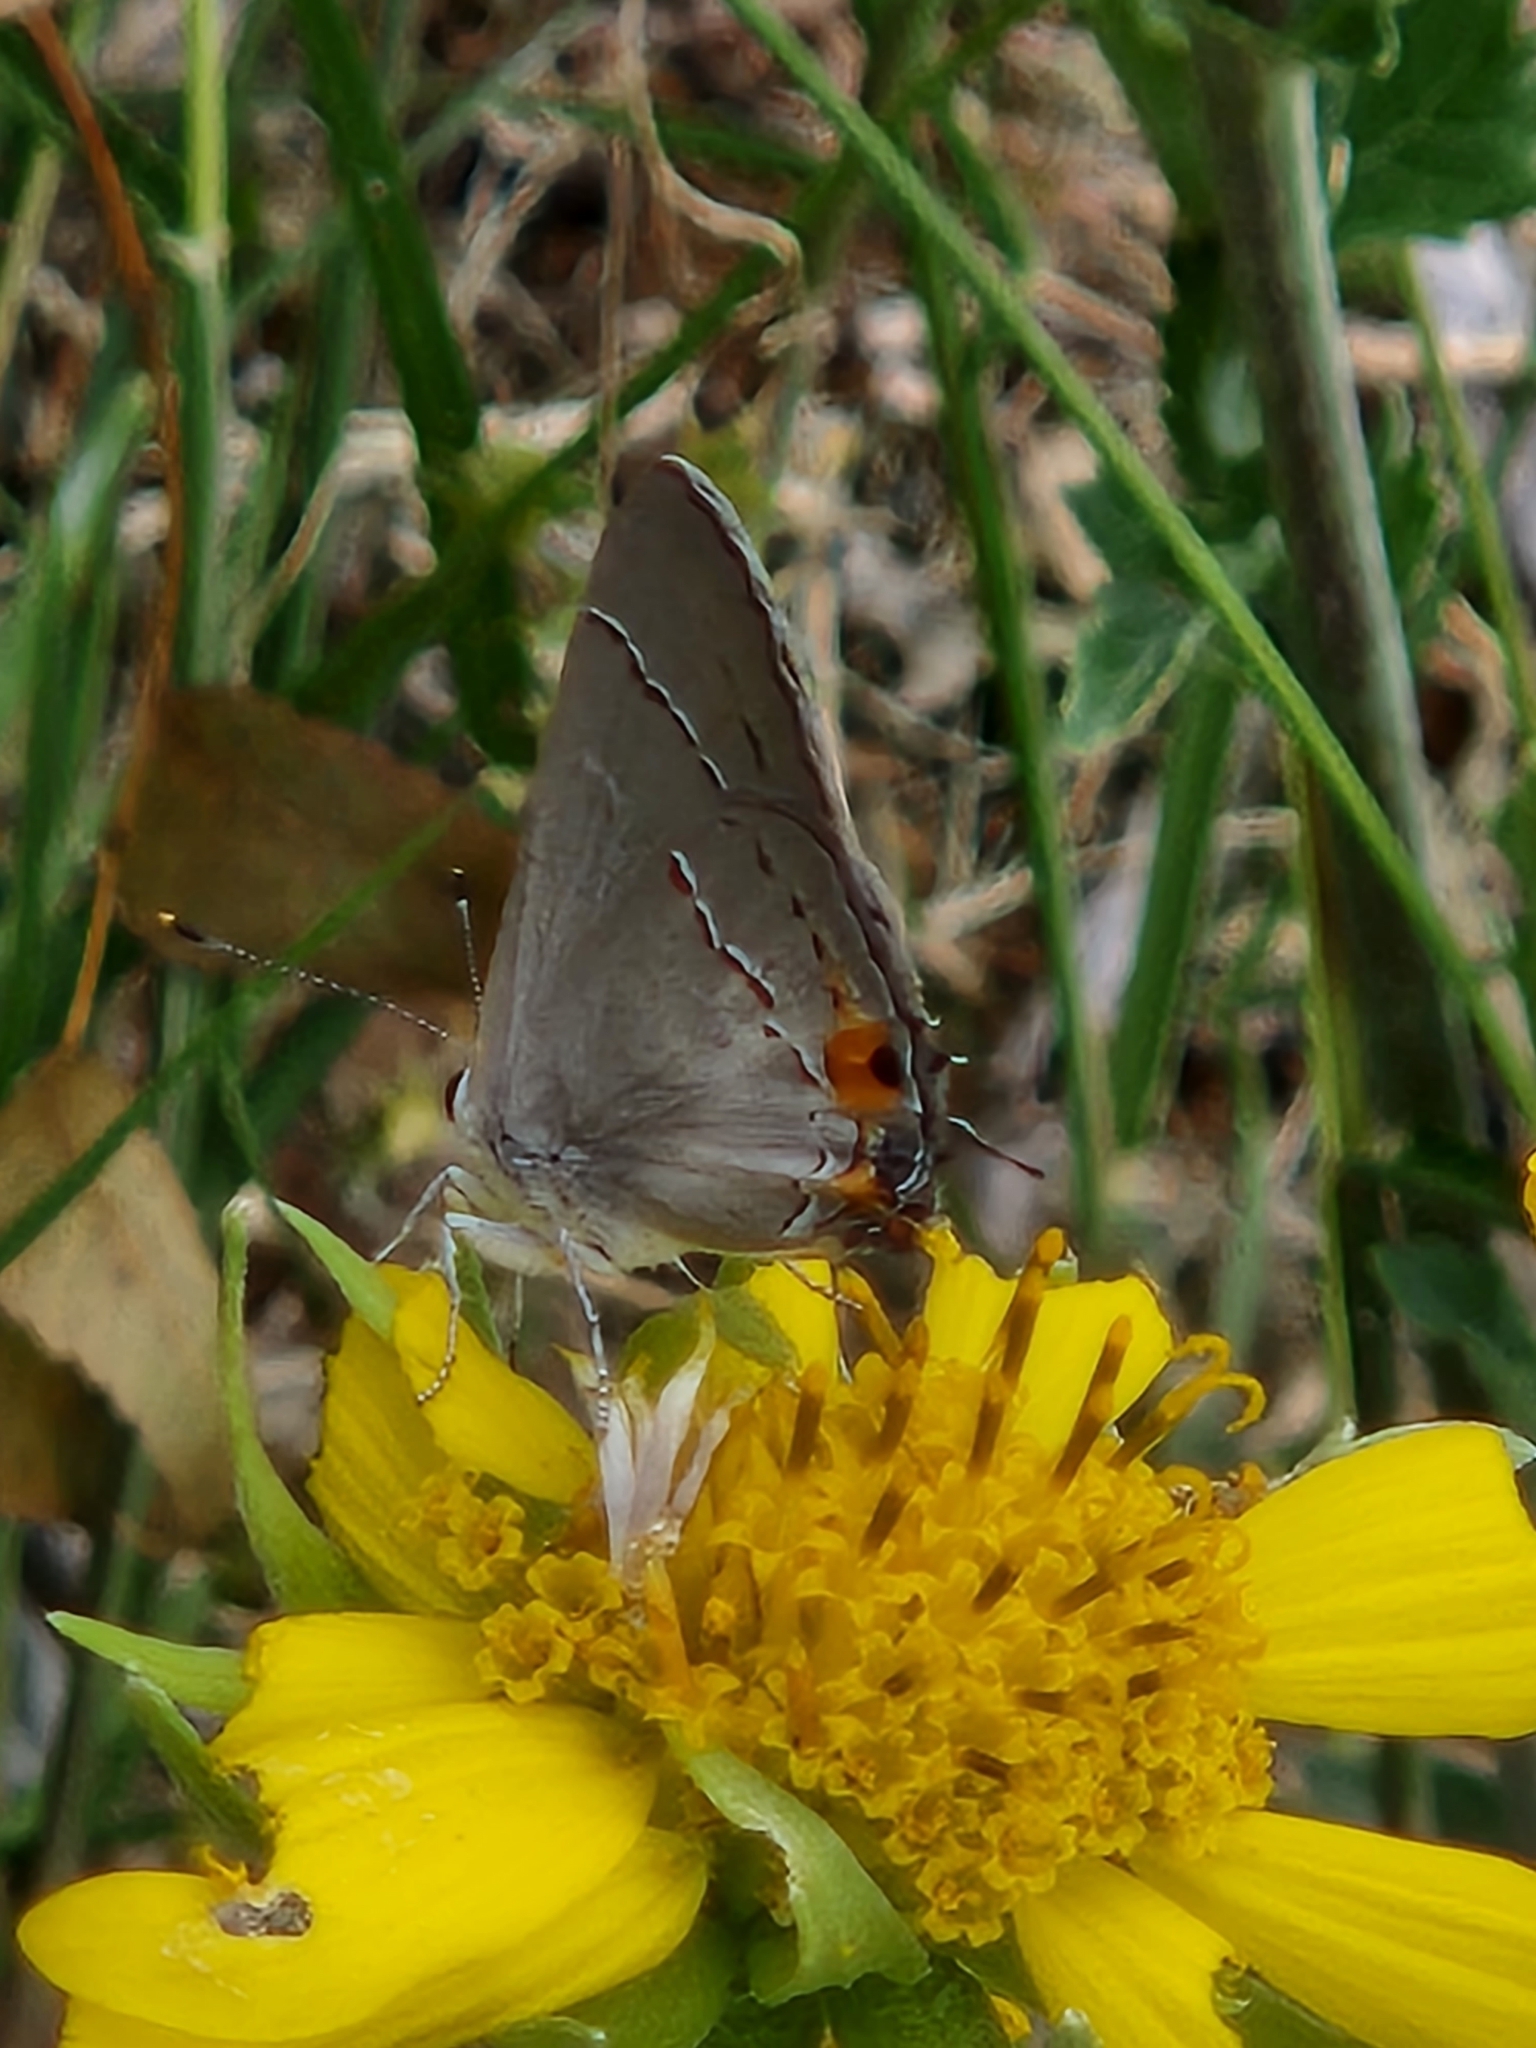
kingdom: Animalia
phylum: Arthropoda
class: Insecta
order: Lepidoptera
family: Lycaenidae
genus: Strymon
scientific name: Strymon melinus
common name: Gray hairstreak
